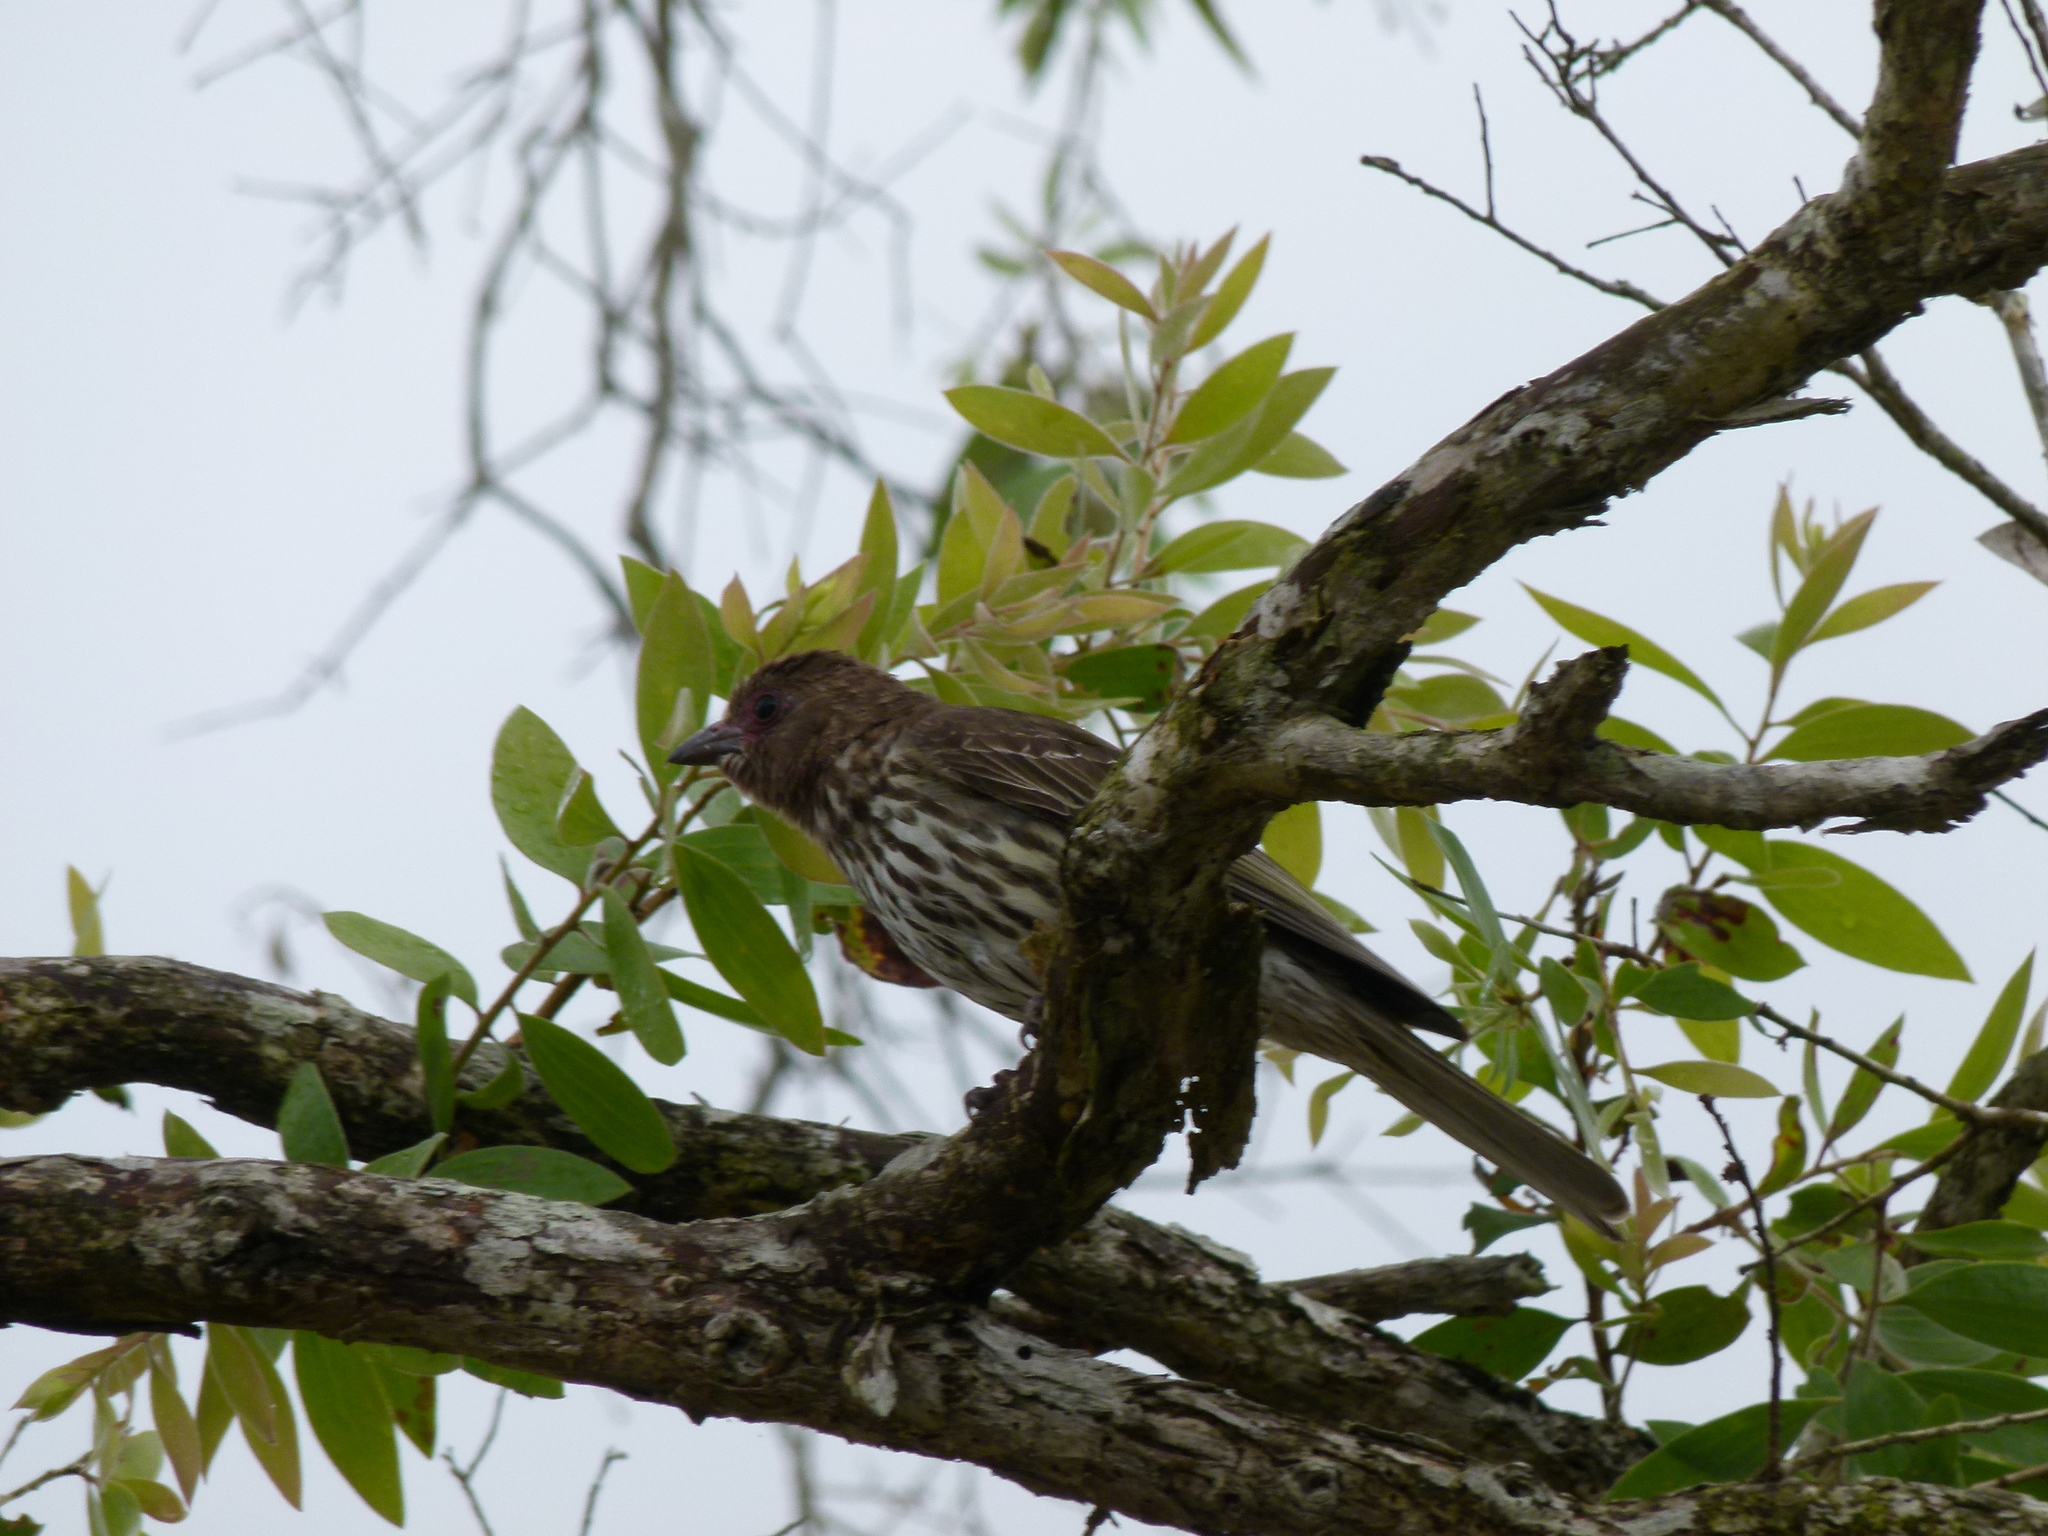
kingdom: Animalia
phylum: Chordata
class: Aves
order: Passeriformes
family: Oriolidae
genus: Sphecotheres
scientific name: Sphecotheres vieilloti
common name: Australasian figbird
